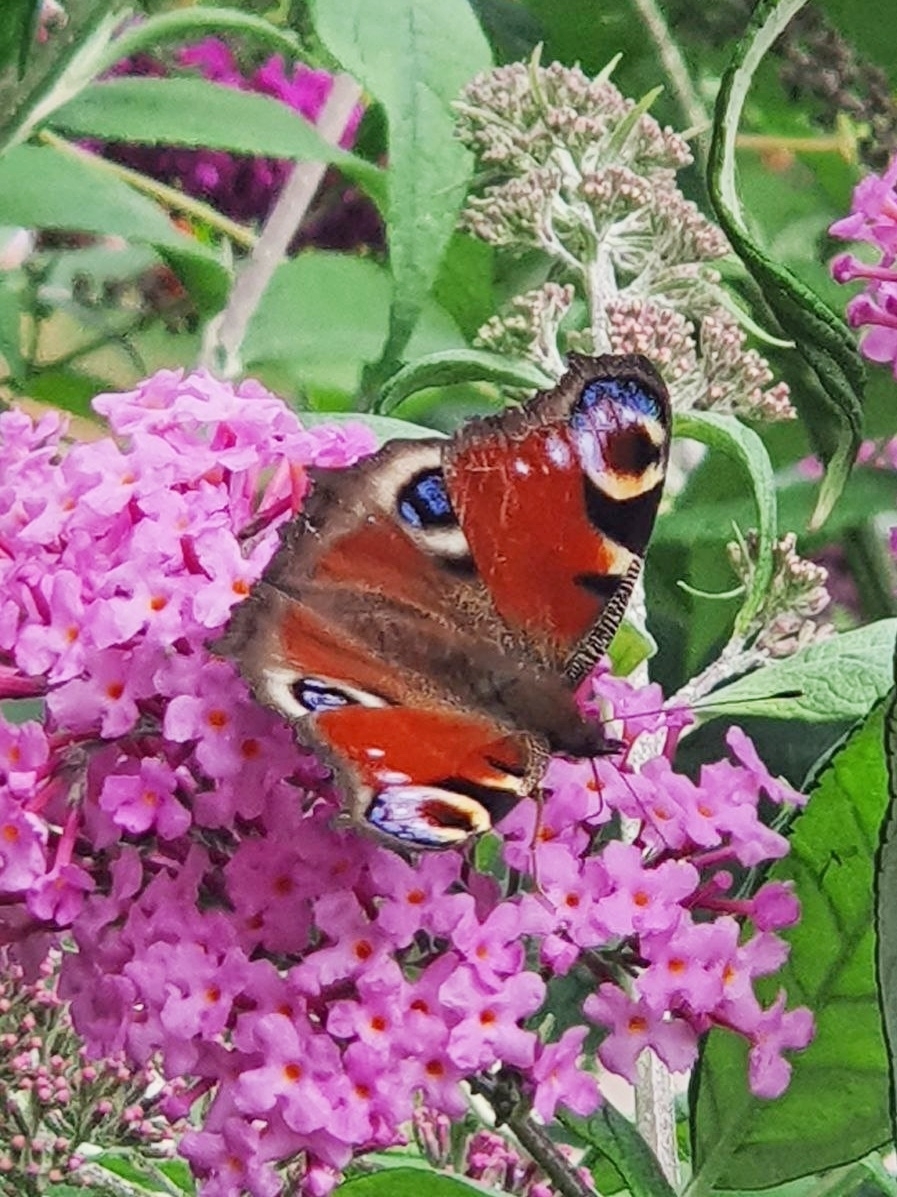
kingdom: Animalia
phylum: Arthropoda
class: Insecta
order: Lepidoptera
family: Nymphalidae
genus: Aglais
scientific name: Aglais io
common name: Peacock
